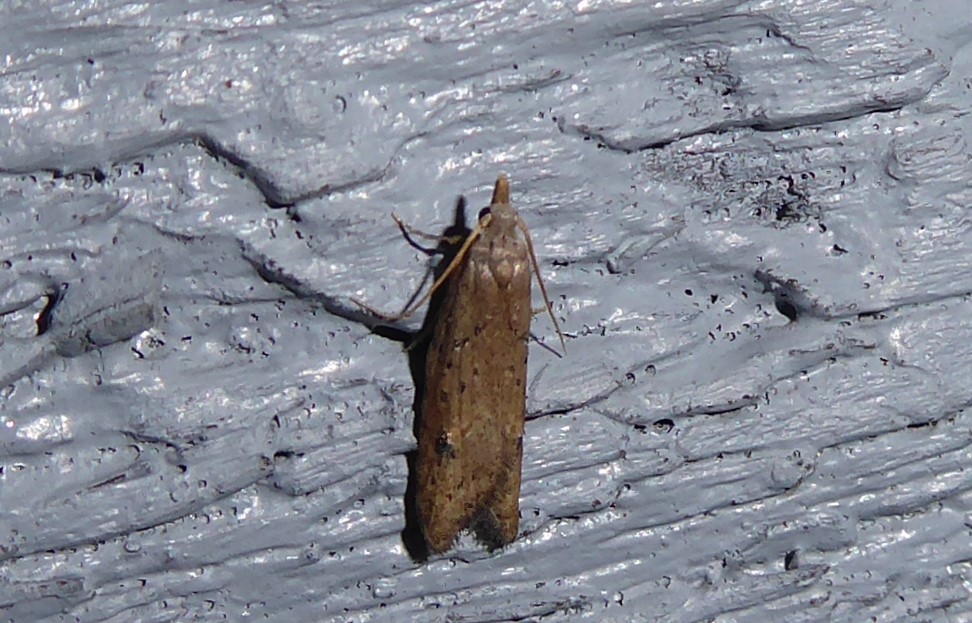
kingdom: Animalia
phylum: Arthropoda
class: Insecta
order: Lepidoptera
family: Carposinidae
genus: Carposina
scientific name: Carposina rubophaga
